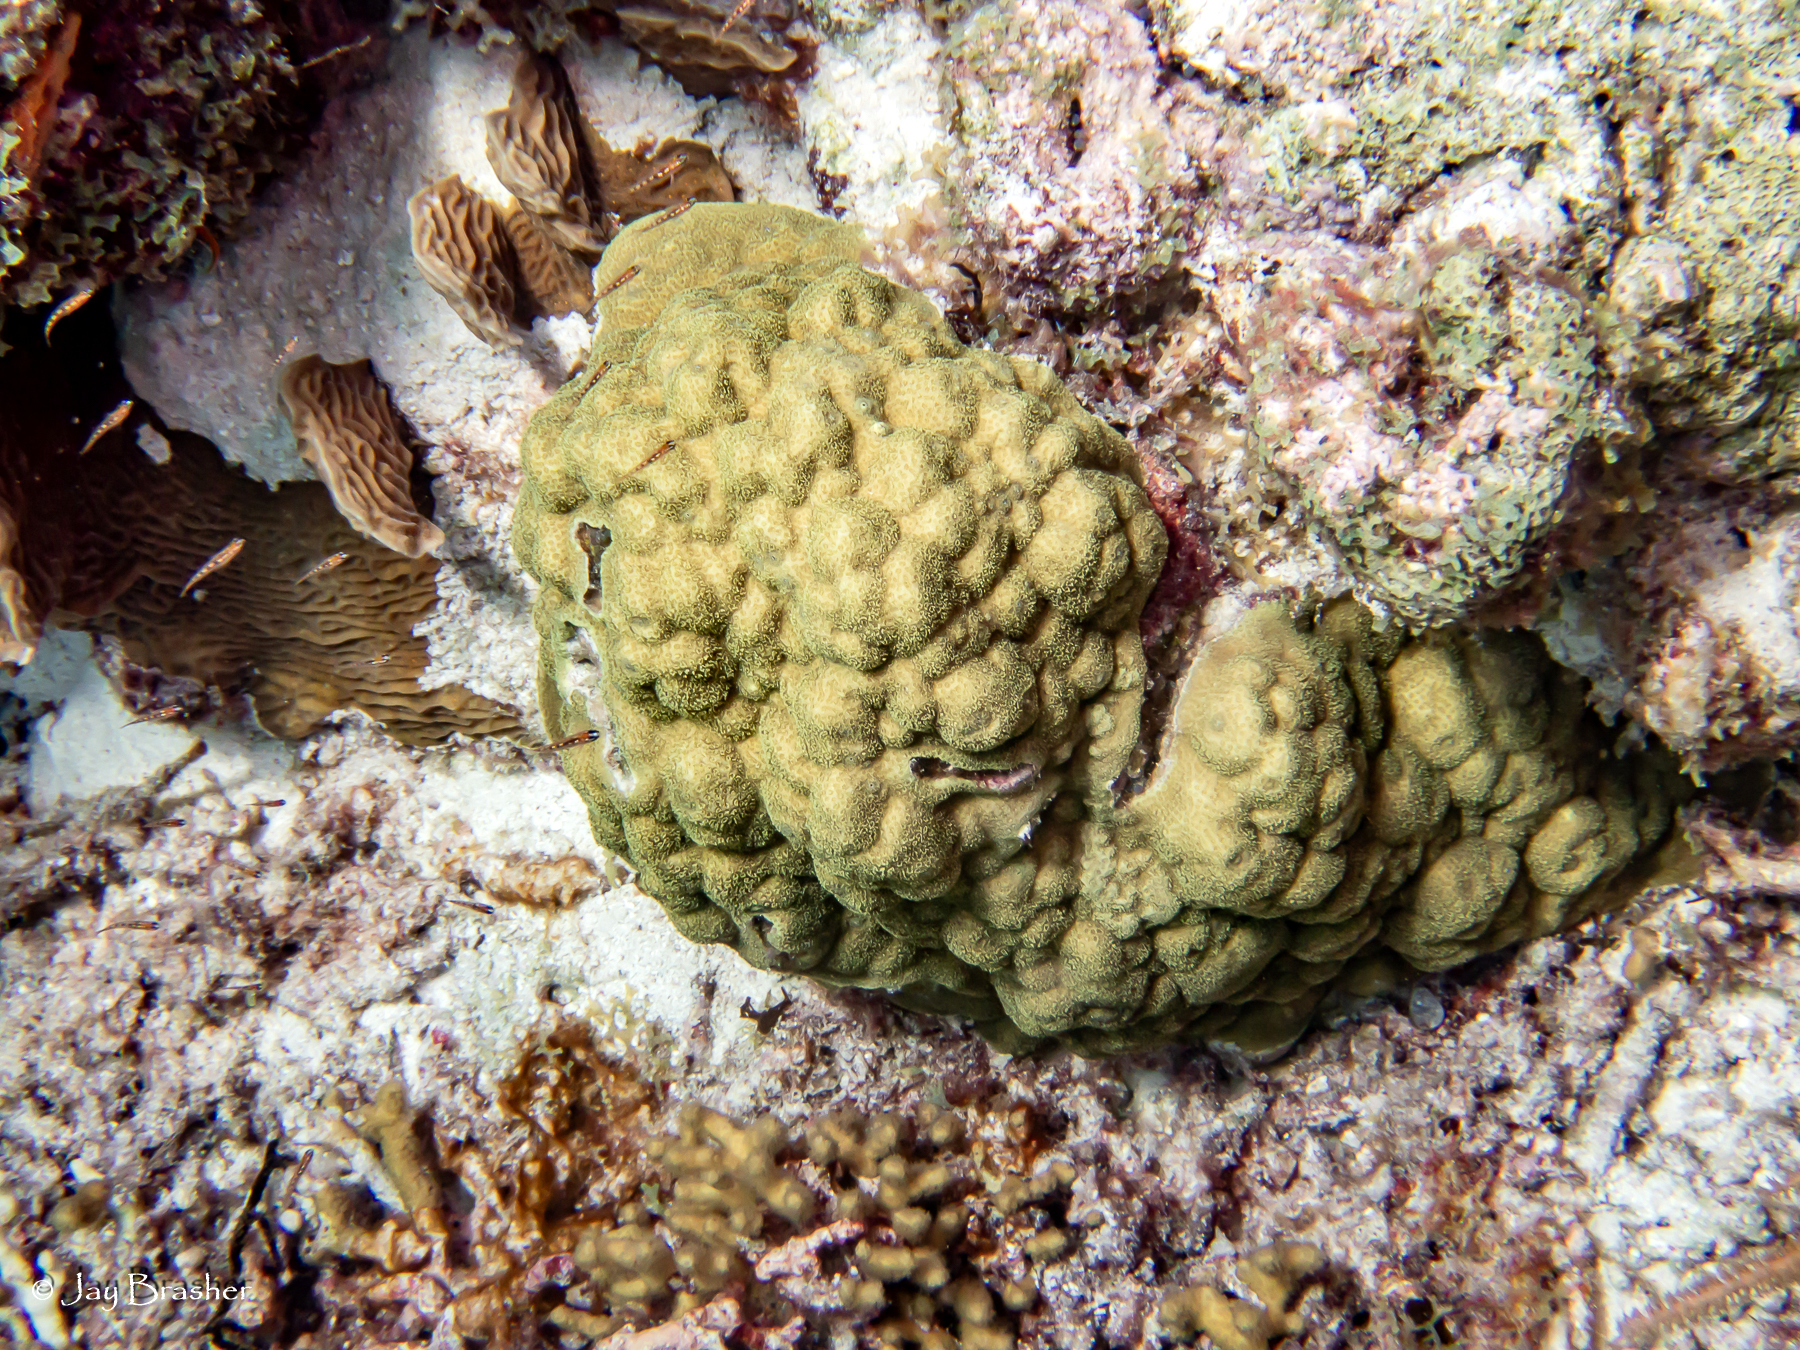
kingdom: Animalia
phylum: Cnidaria
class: Anthozoa
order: Scleractinia
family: Poritidae
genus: Porites
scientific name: Porites astreoides
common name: Mustard hill coral
